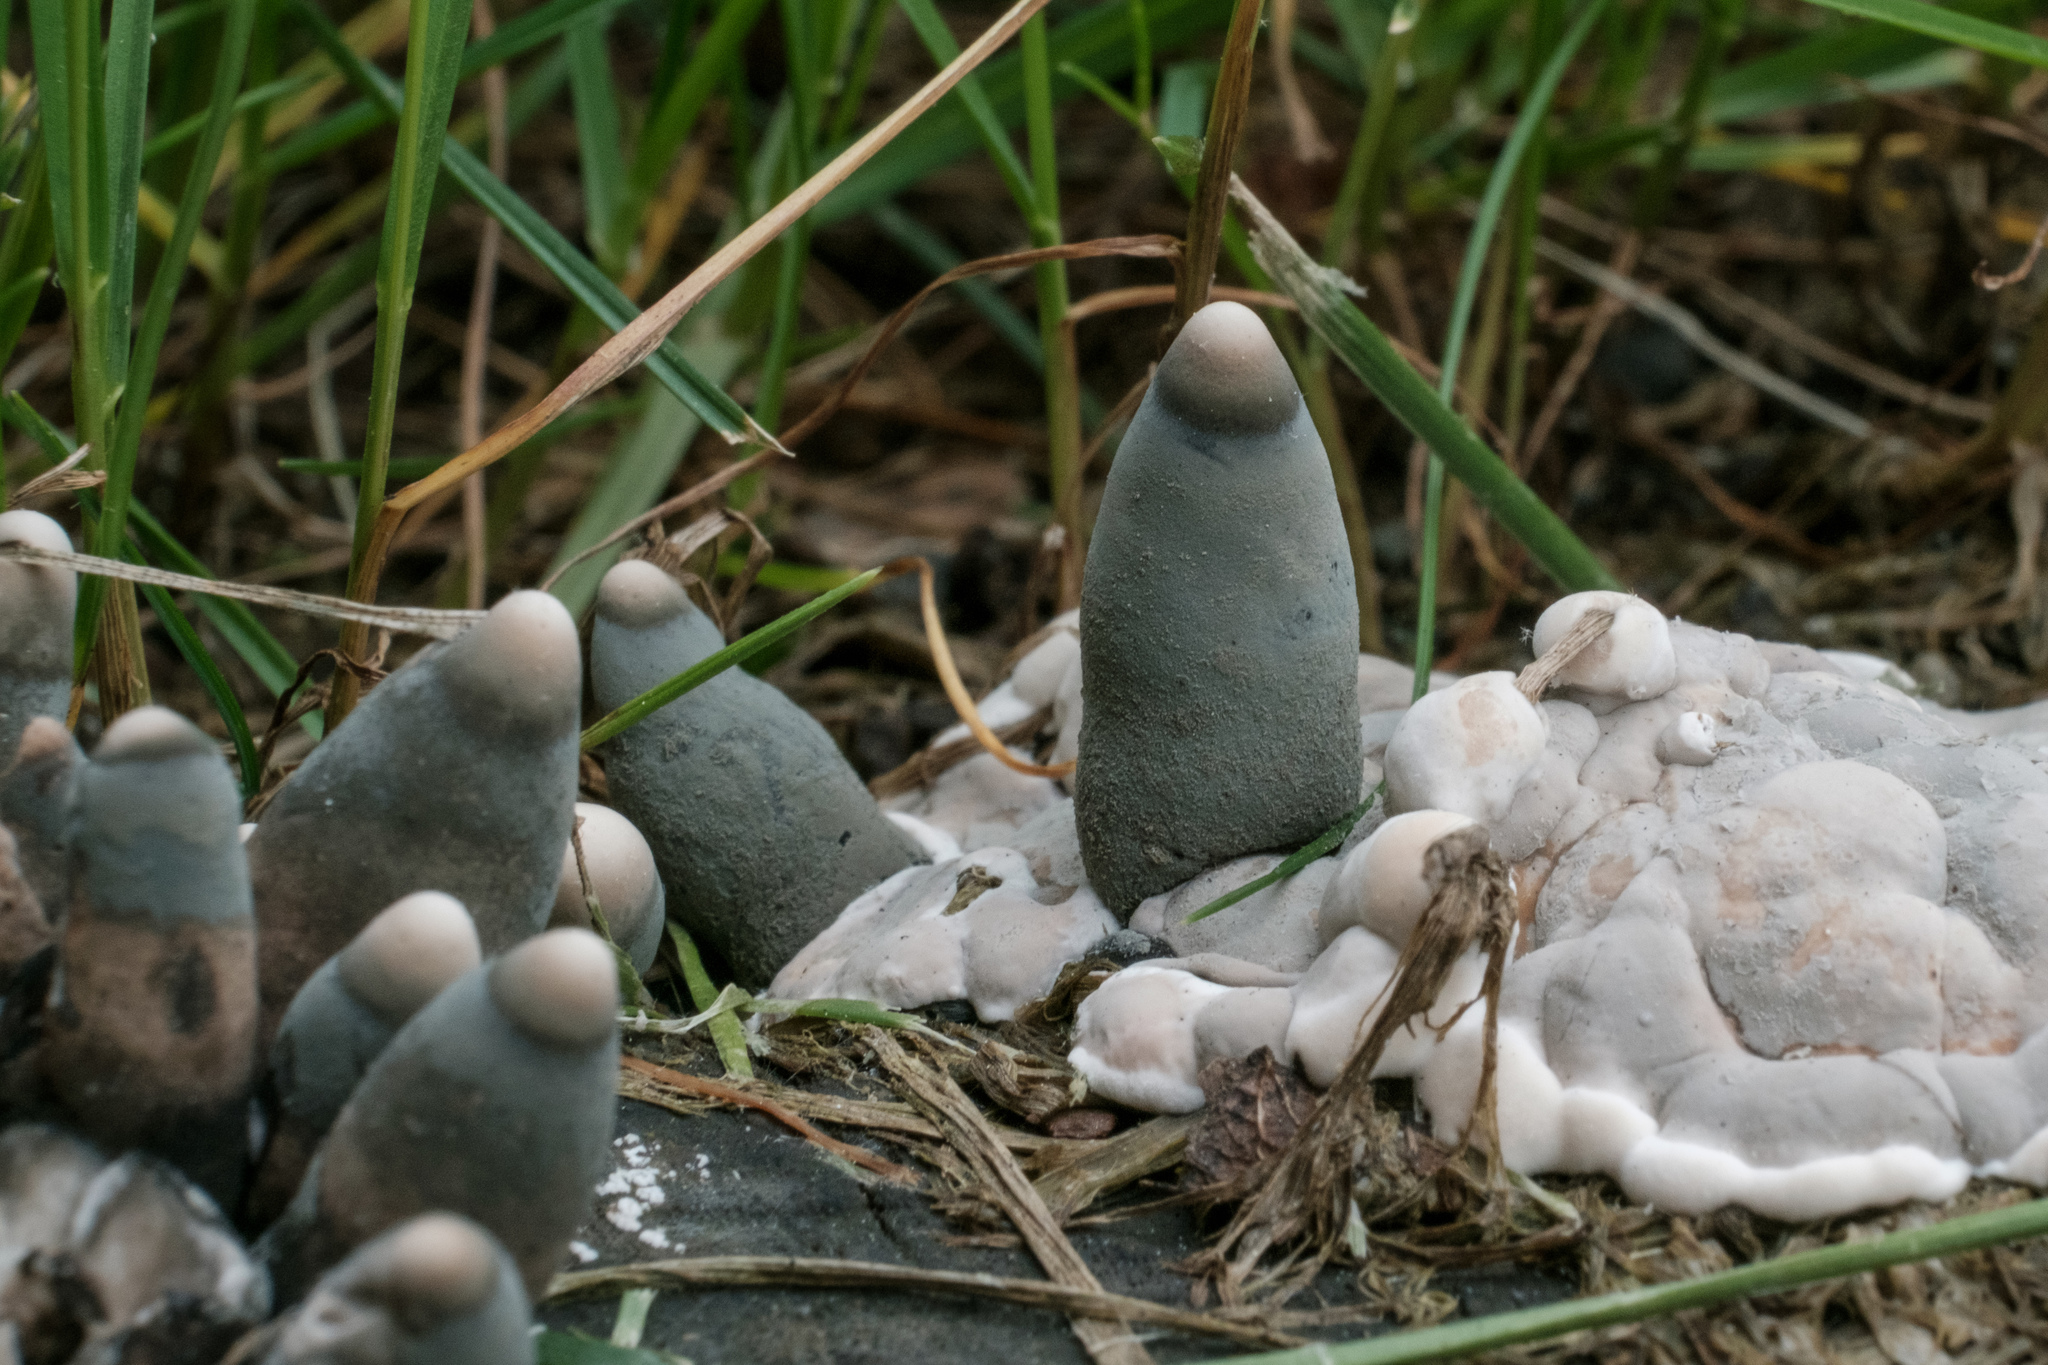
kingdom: Fungi
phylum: Ascomycota
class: Sordariomycetes
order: Xylariales
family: Xylariaceae
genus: Xylaria
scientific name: Xylaria polymorpha
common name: Dead man's fingers
